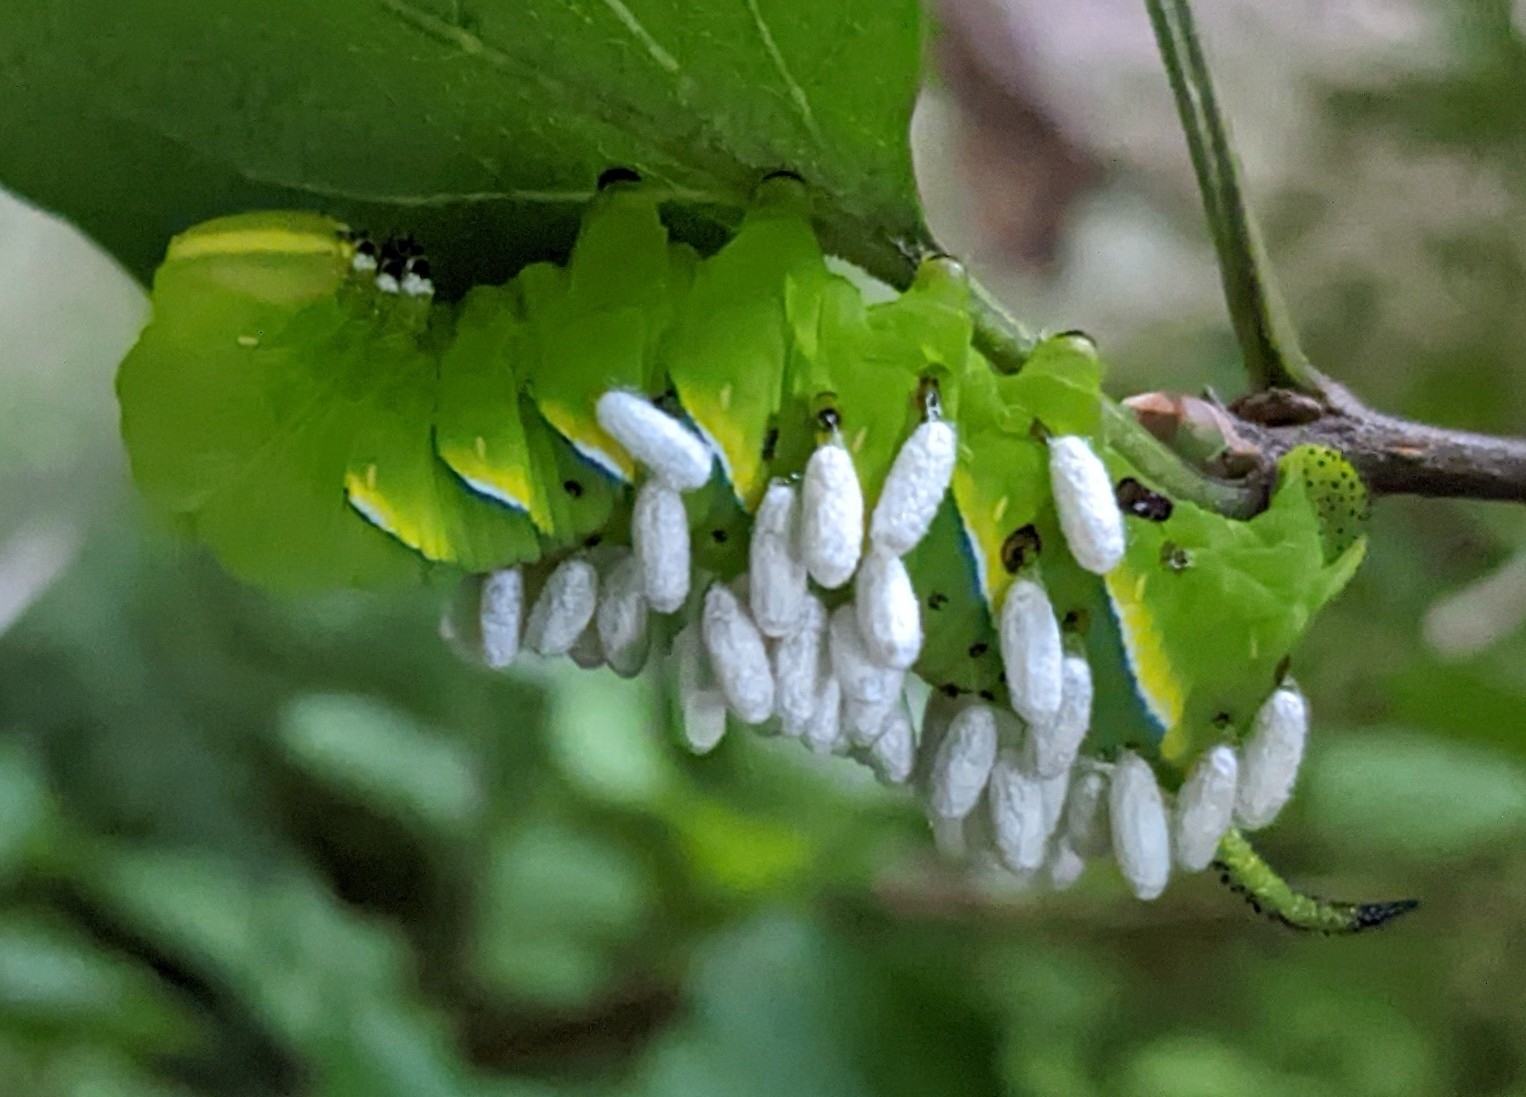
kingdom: Animalia
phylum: Arthropoda
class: Insecta
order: Lepidoptera
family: Sphingidae
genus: Dolba
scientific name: Dolba hyloeus
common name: Pawpaw sphinx
